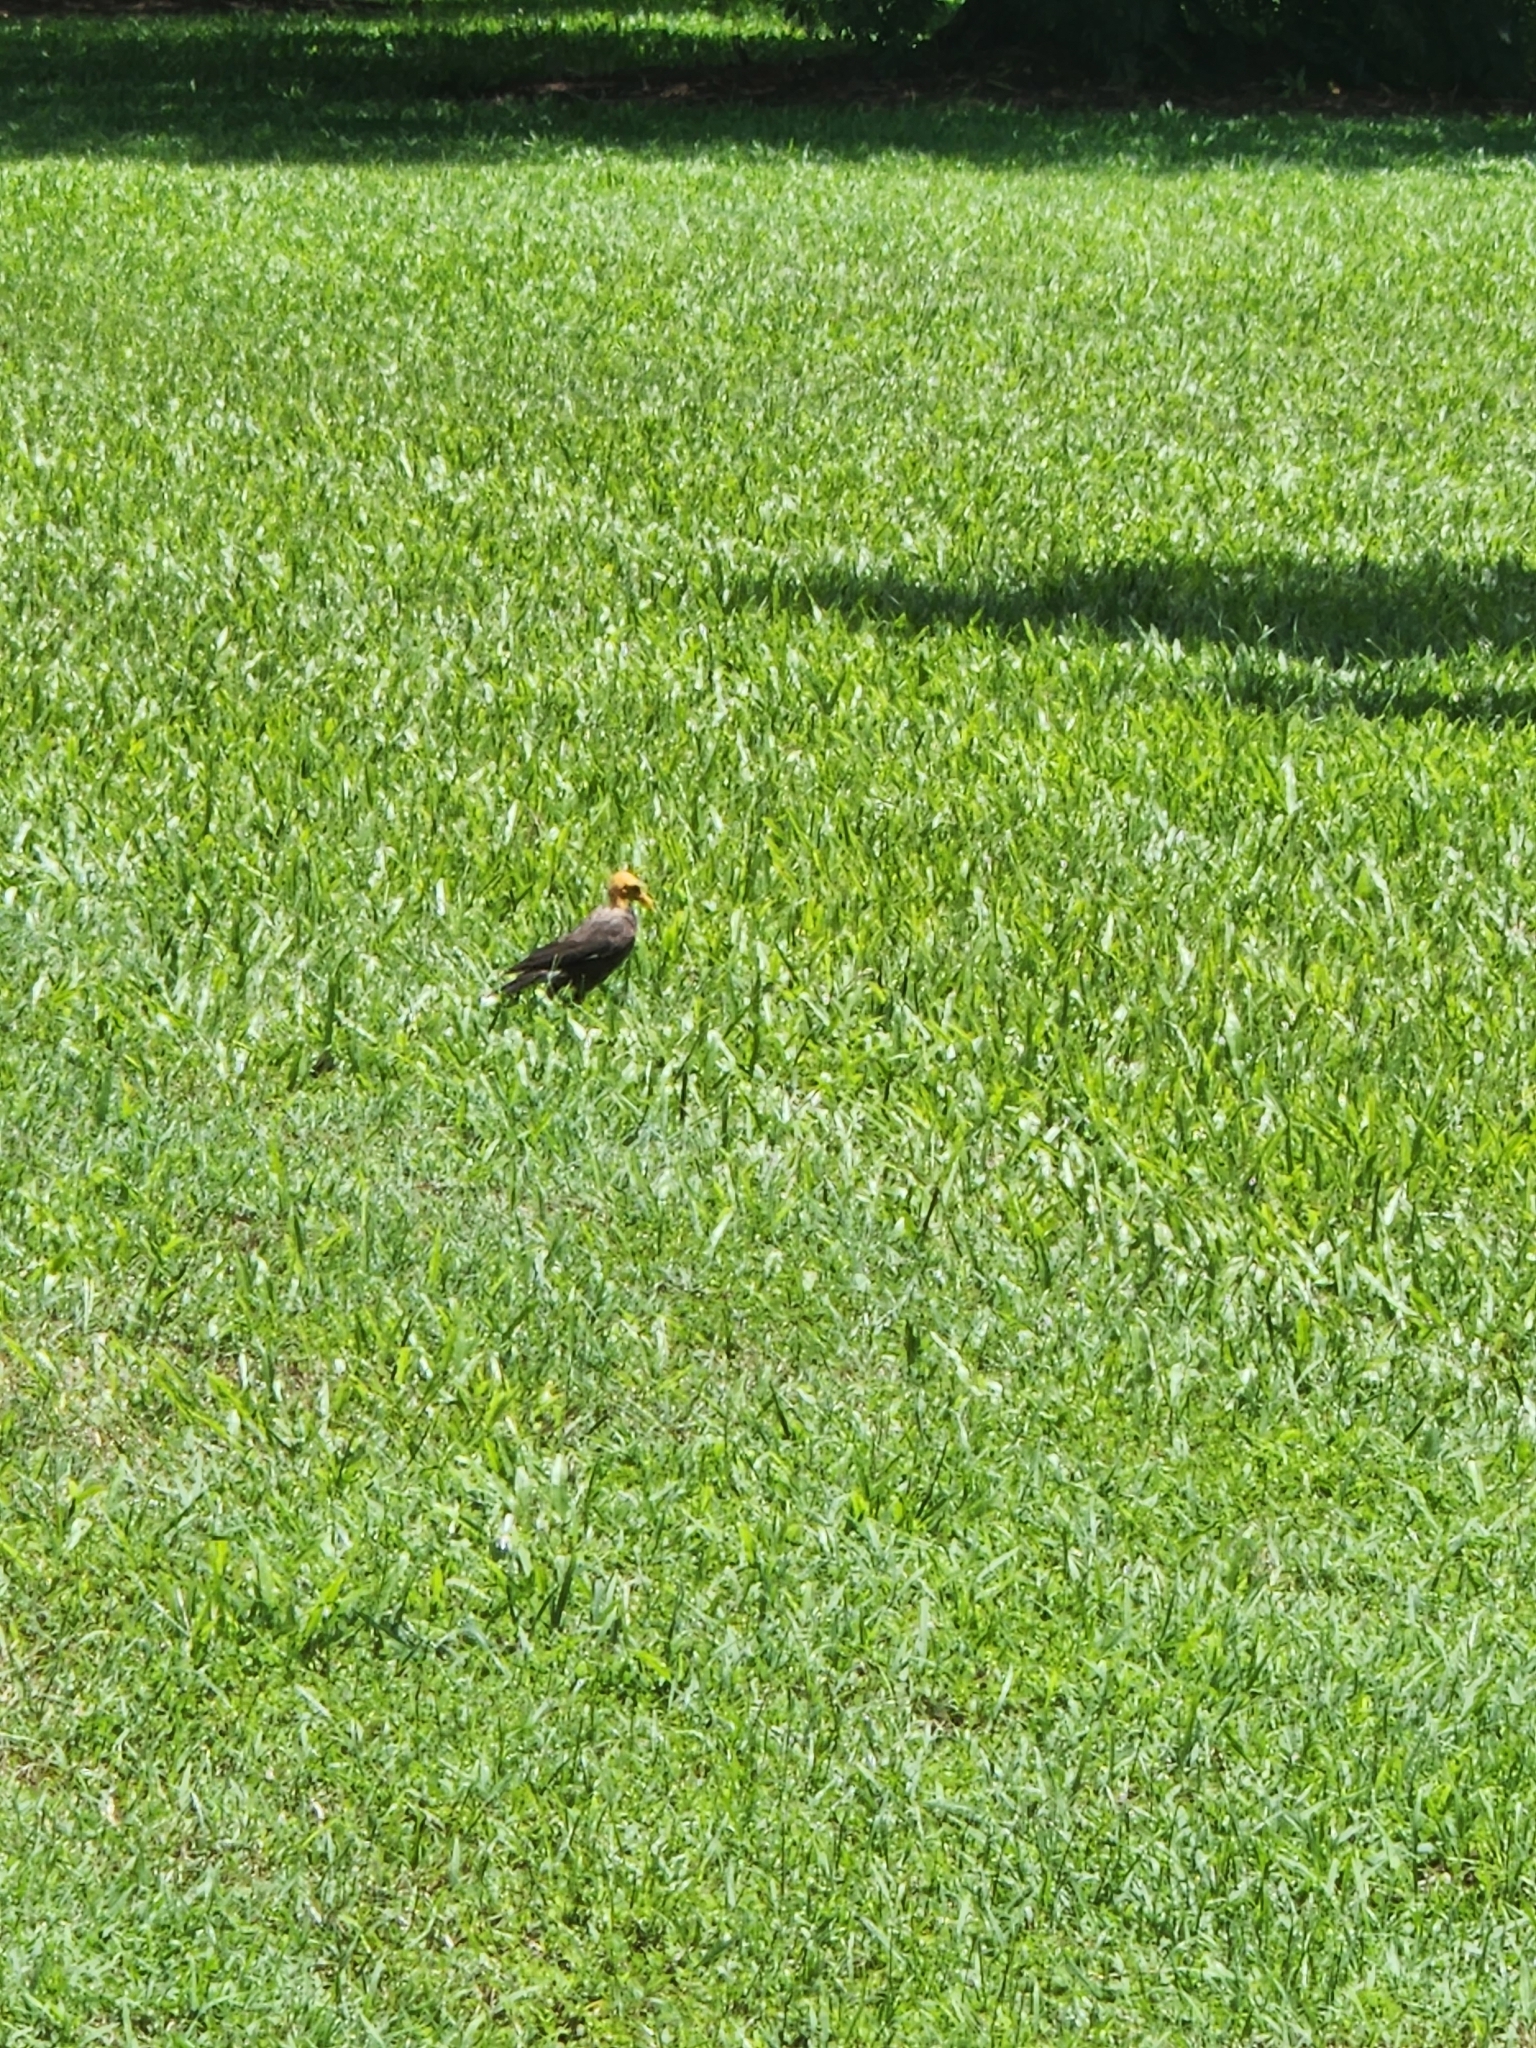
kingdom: Animalia
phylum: Chordata
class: Aves
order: Passeriformes
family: Sturnidae
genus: Acridotheres
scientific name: Acridotheres tristis
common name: Common myna
